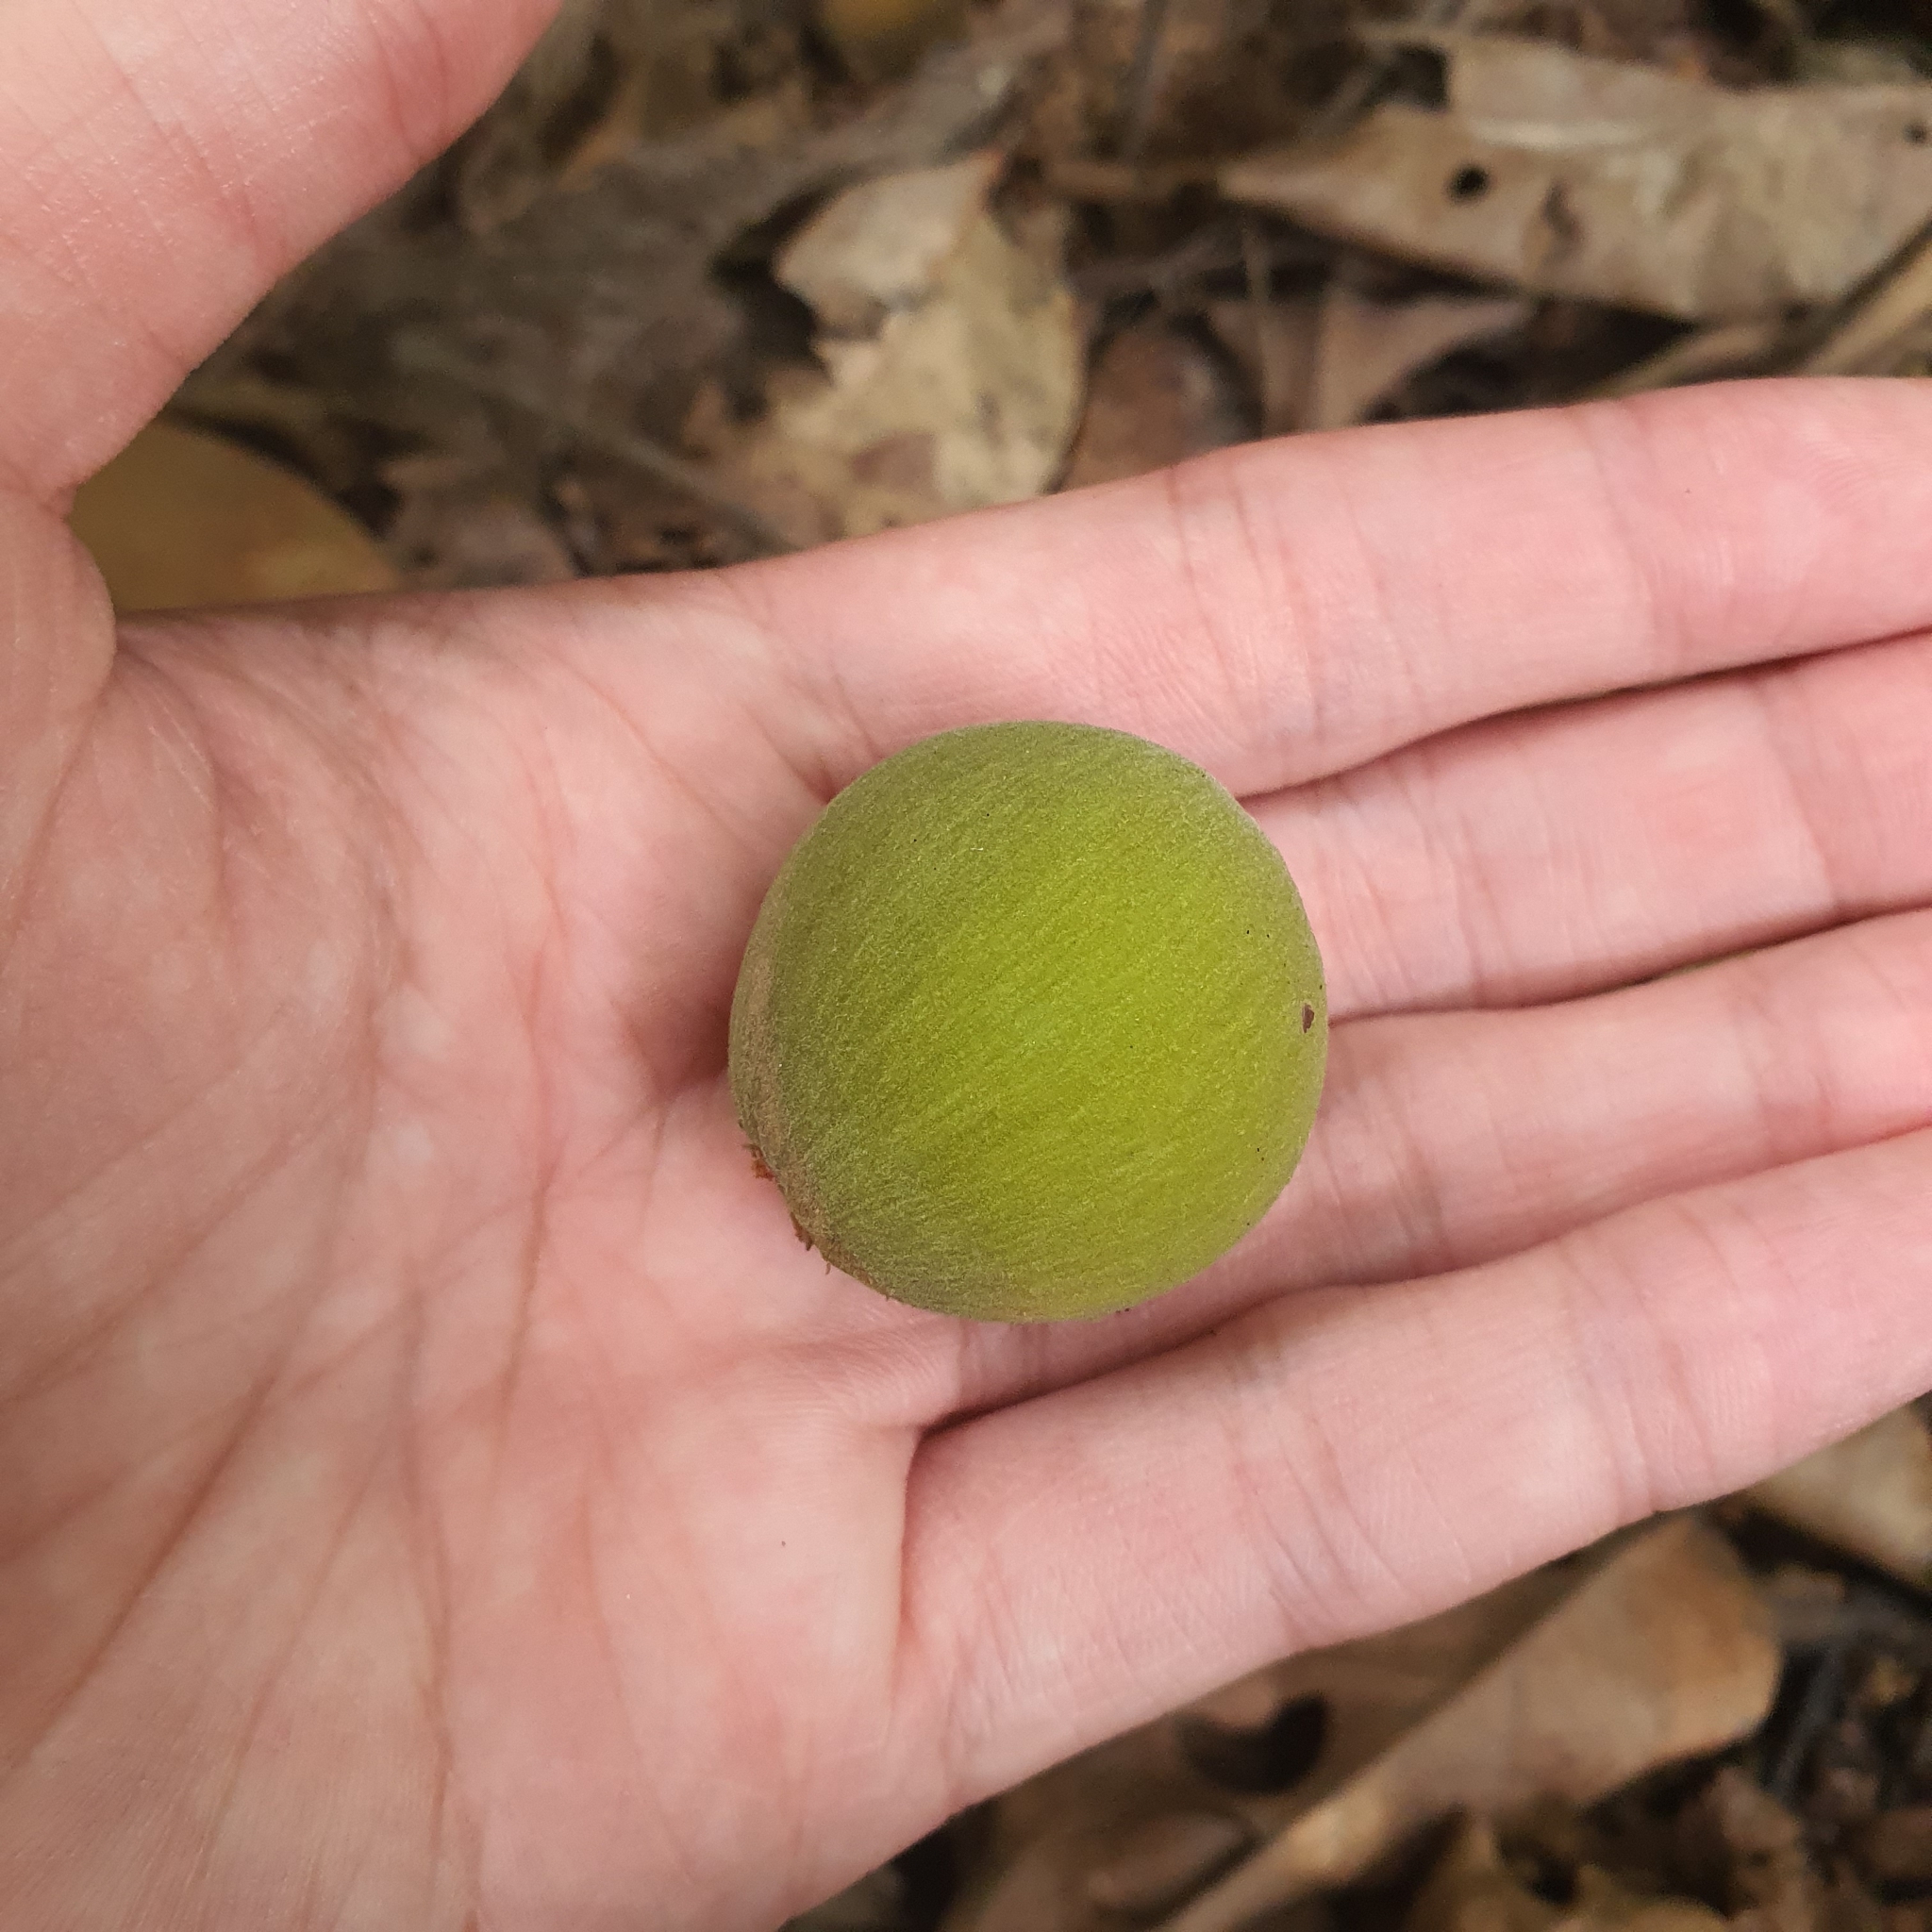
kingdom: Plantae
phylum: Tracheophyta
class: Magnoliopsida
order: Sapindales
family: Meliaceae
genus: Sandoricum
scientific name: Sandoricum koetjape
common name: Santol
